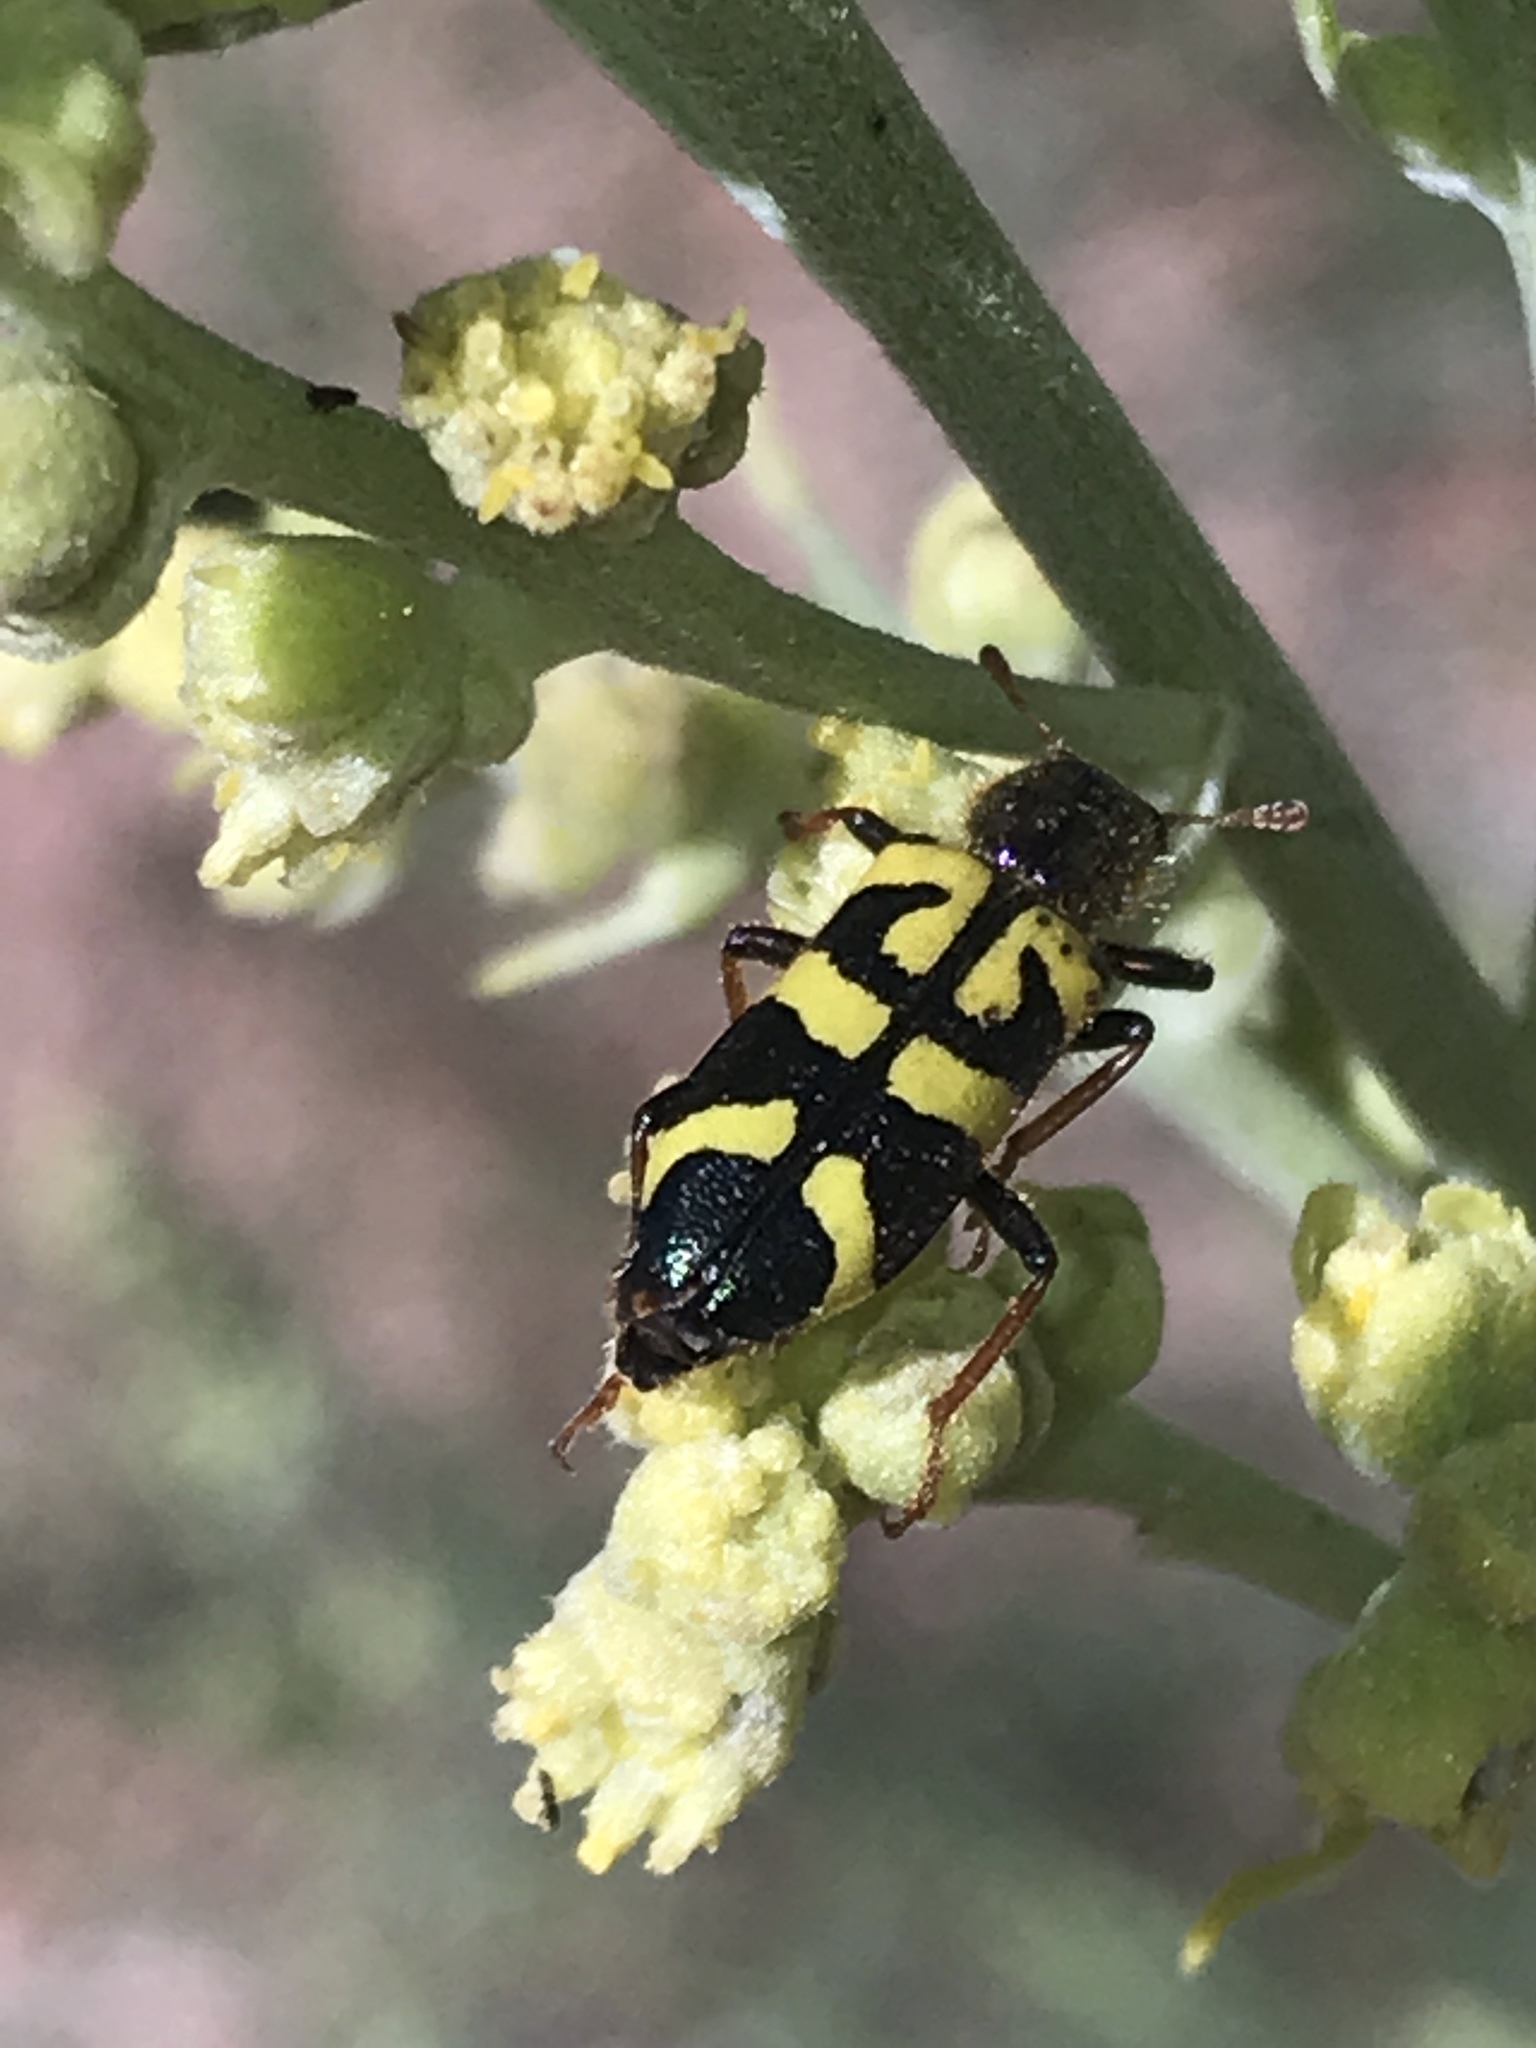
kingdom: Animalia
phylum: Arthropoda
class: Insecta
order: Coleoptera
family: Cleridae
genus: Trichodes
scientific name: Trichodes ornatus
